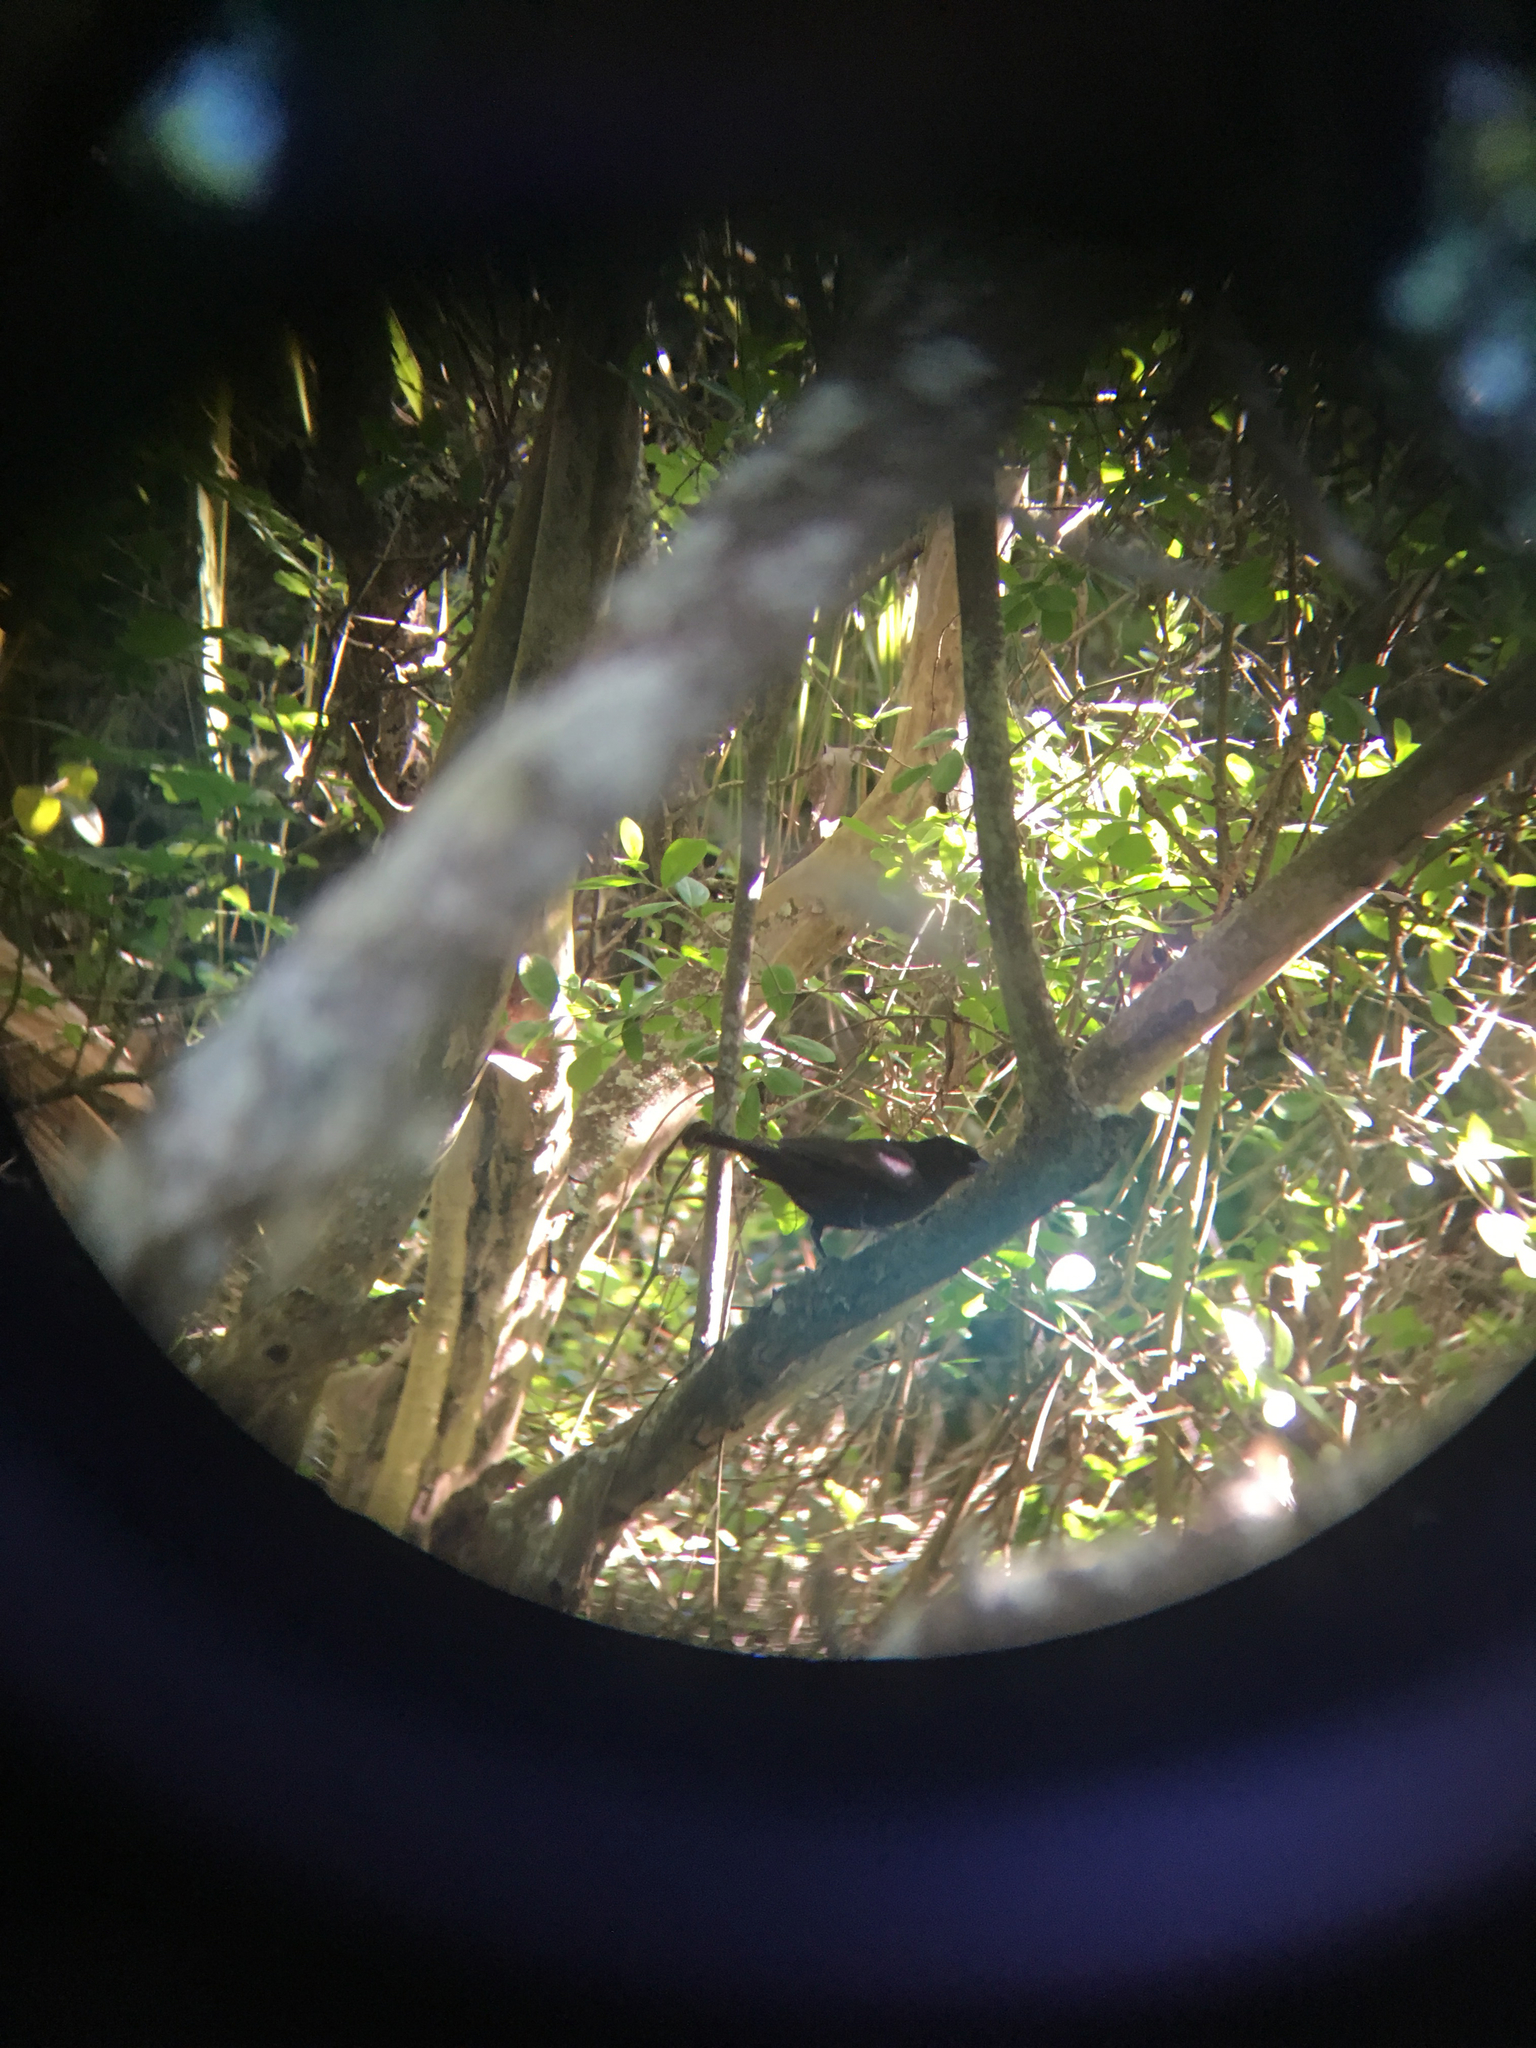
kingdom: Animalia
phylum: Chordata
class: Aves
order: Passeriformes
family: Icteridae
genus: Molothrus
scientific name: Molothrus aeneus
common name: Bronzed cowbird
